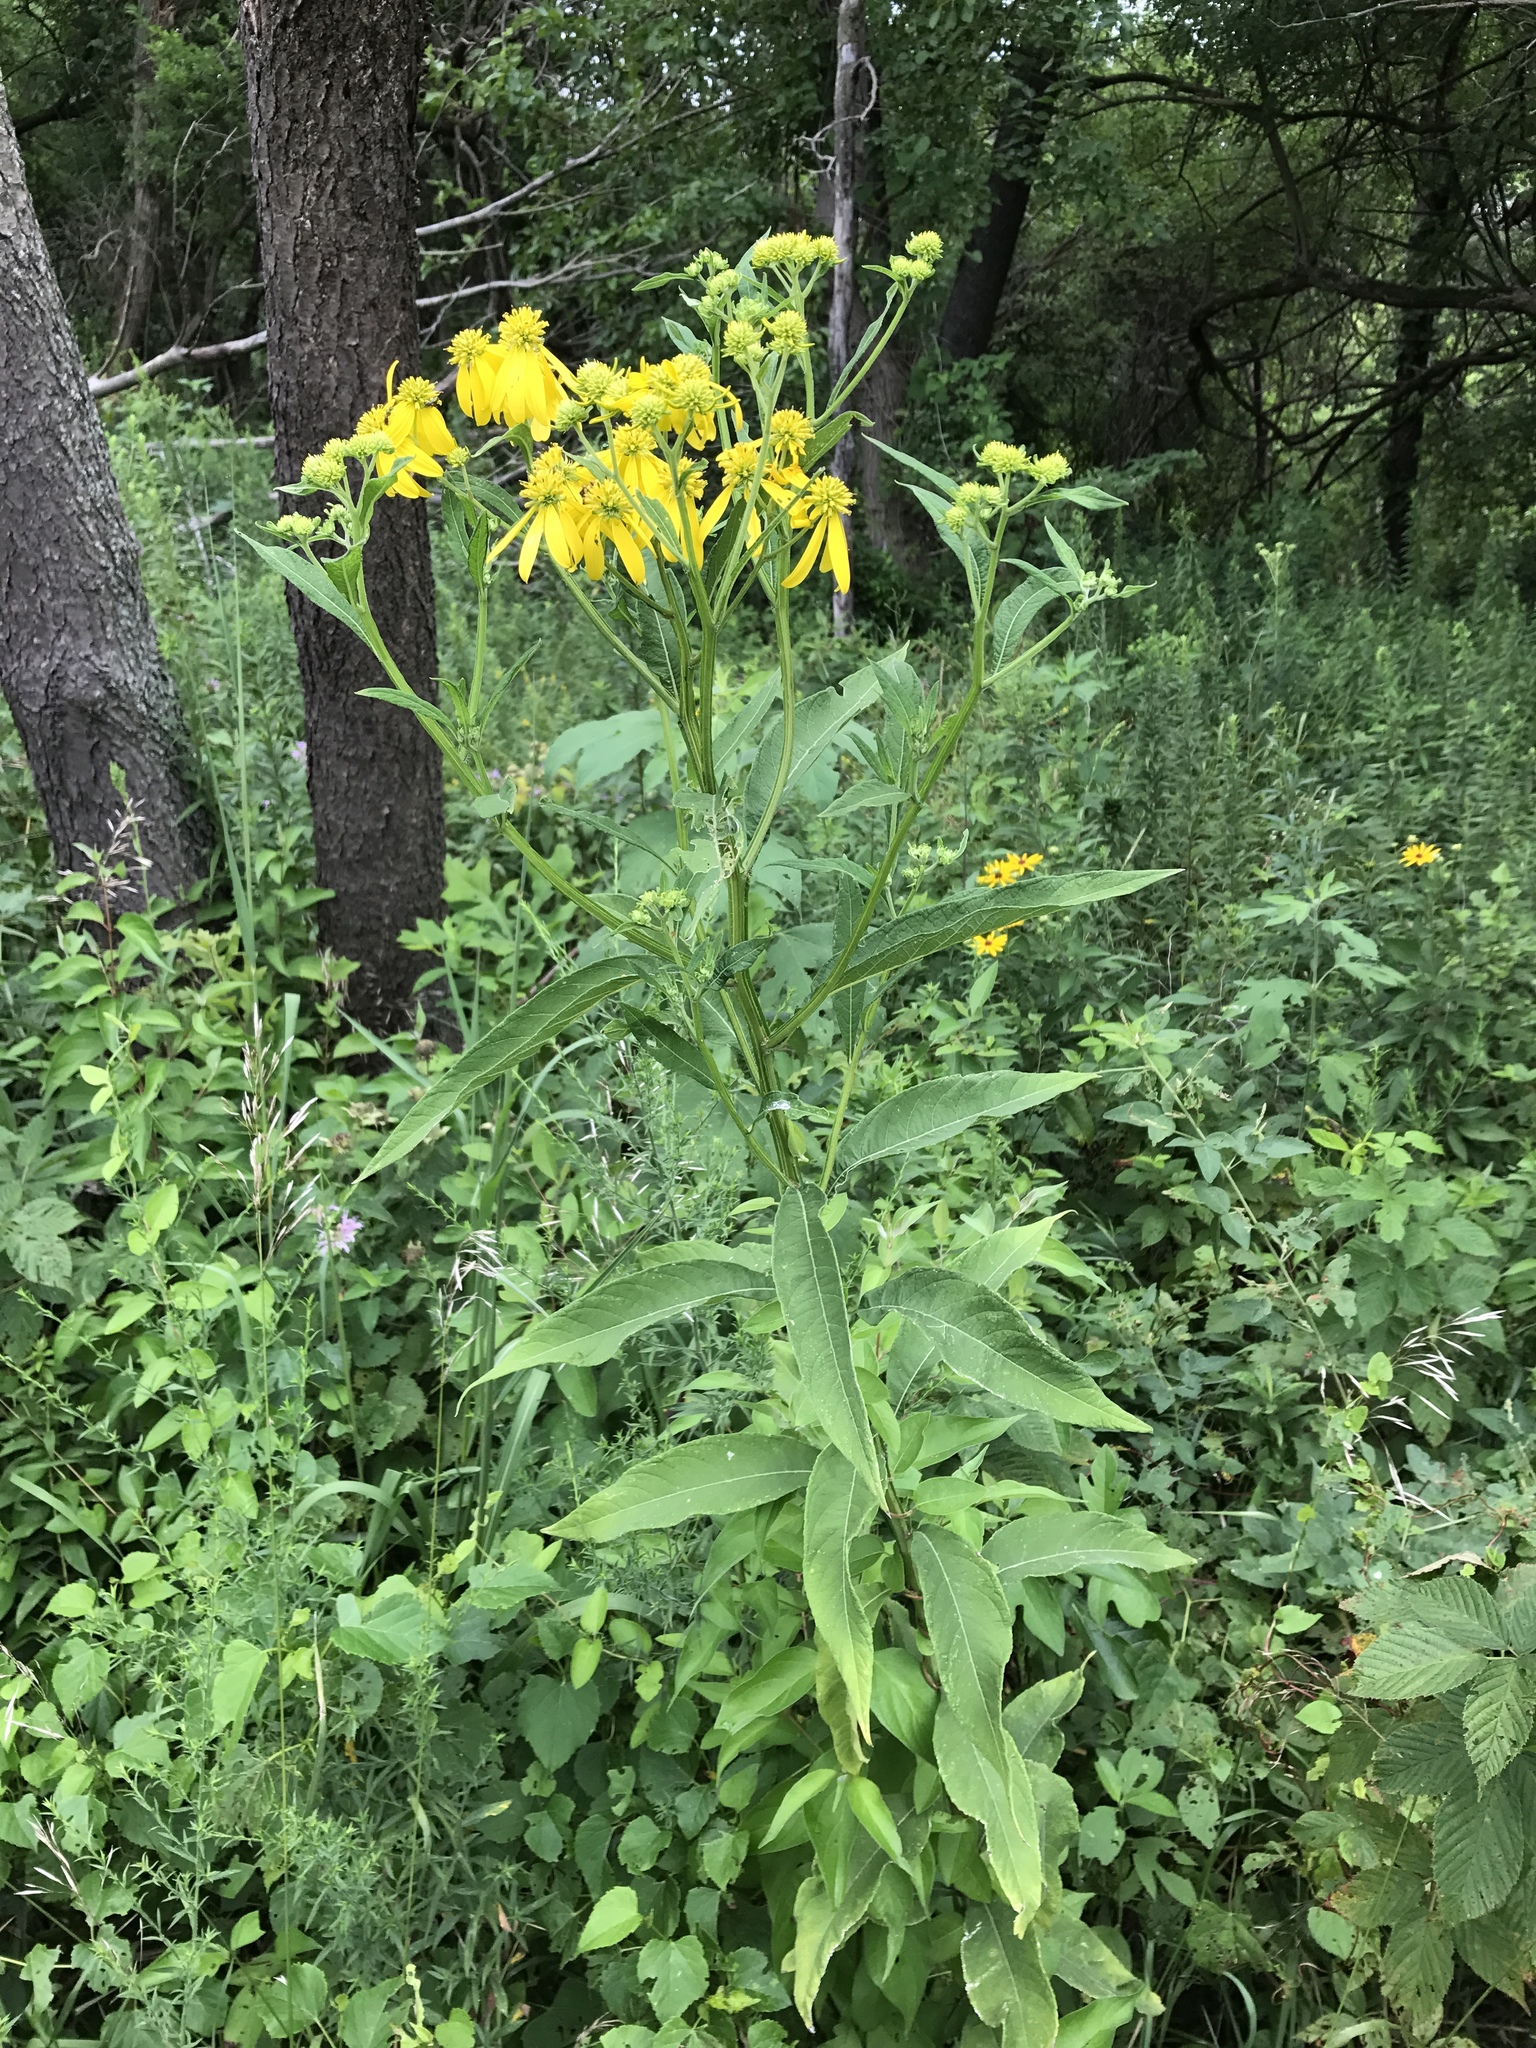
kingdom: Plantae
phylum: Tracheophyta
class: Magnoliopsida
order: Asterales
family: Asteraceae
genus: Verbesina
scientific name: Verbesina alternifolia
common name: Wingstem
